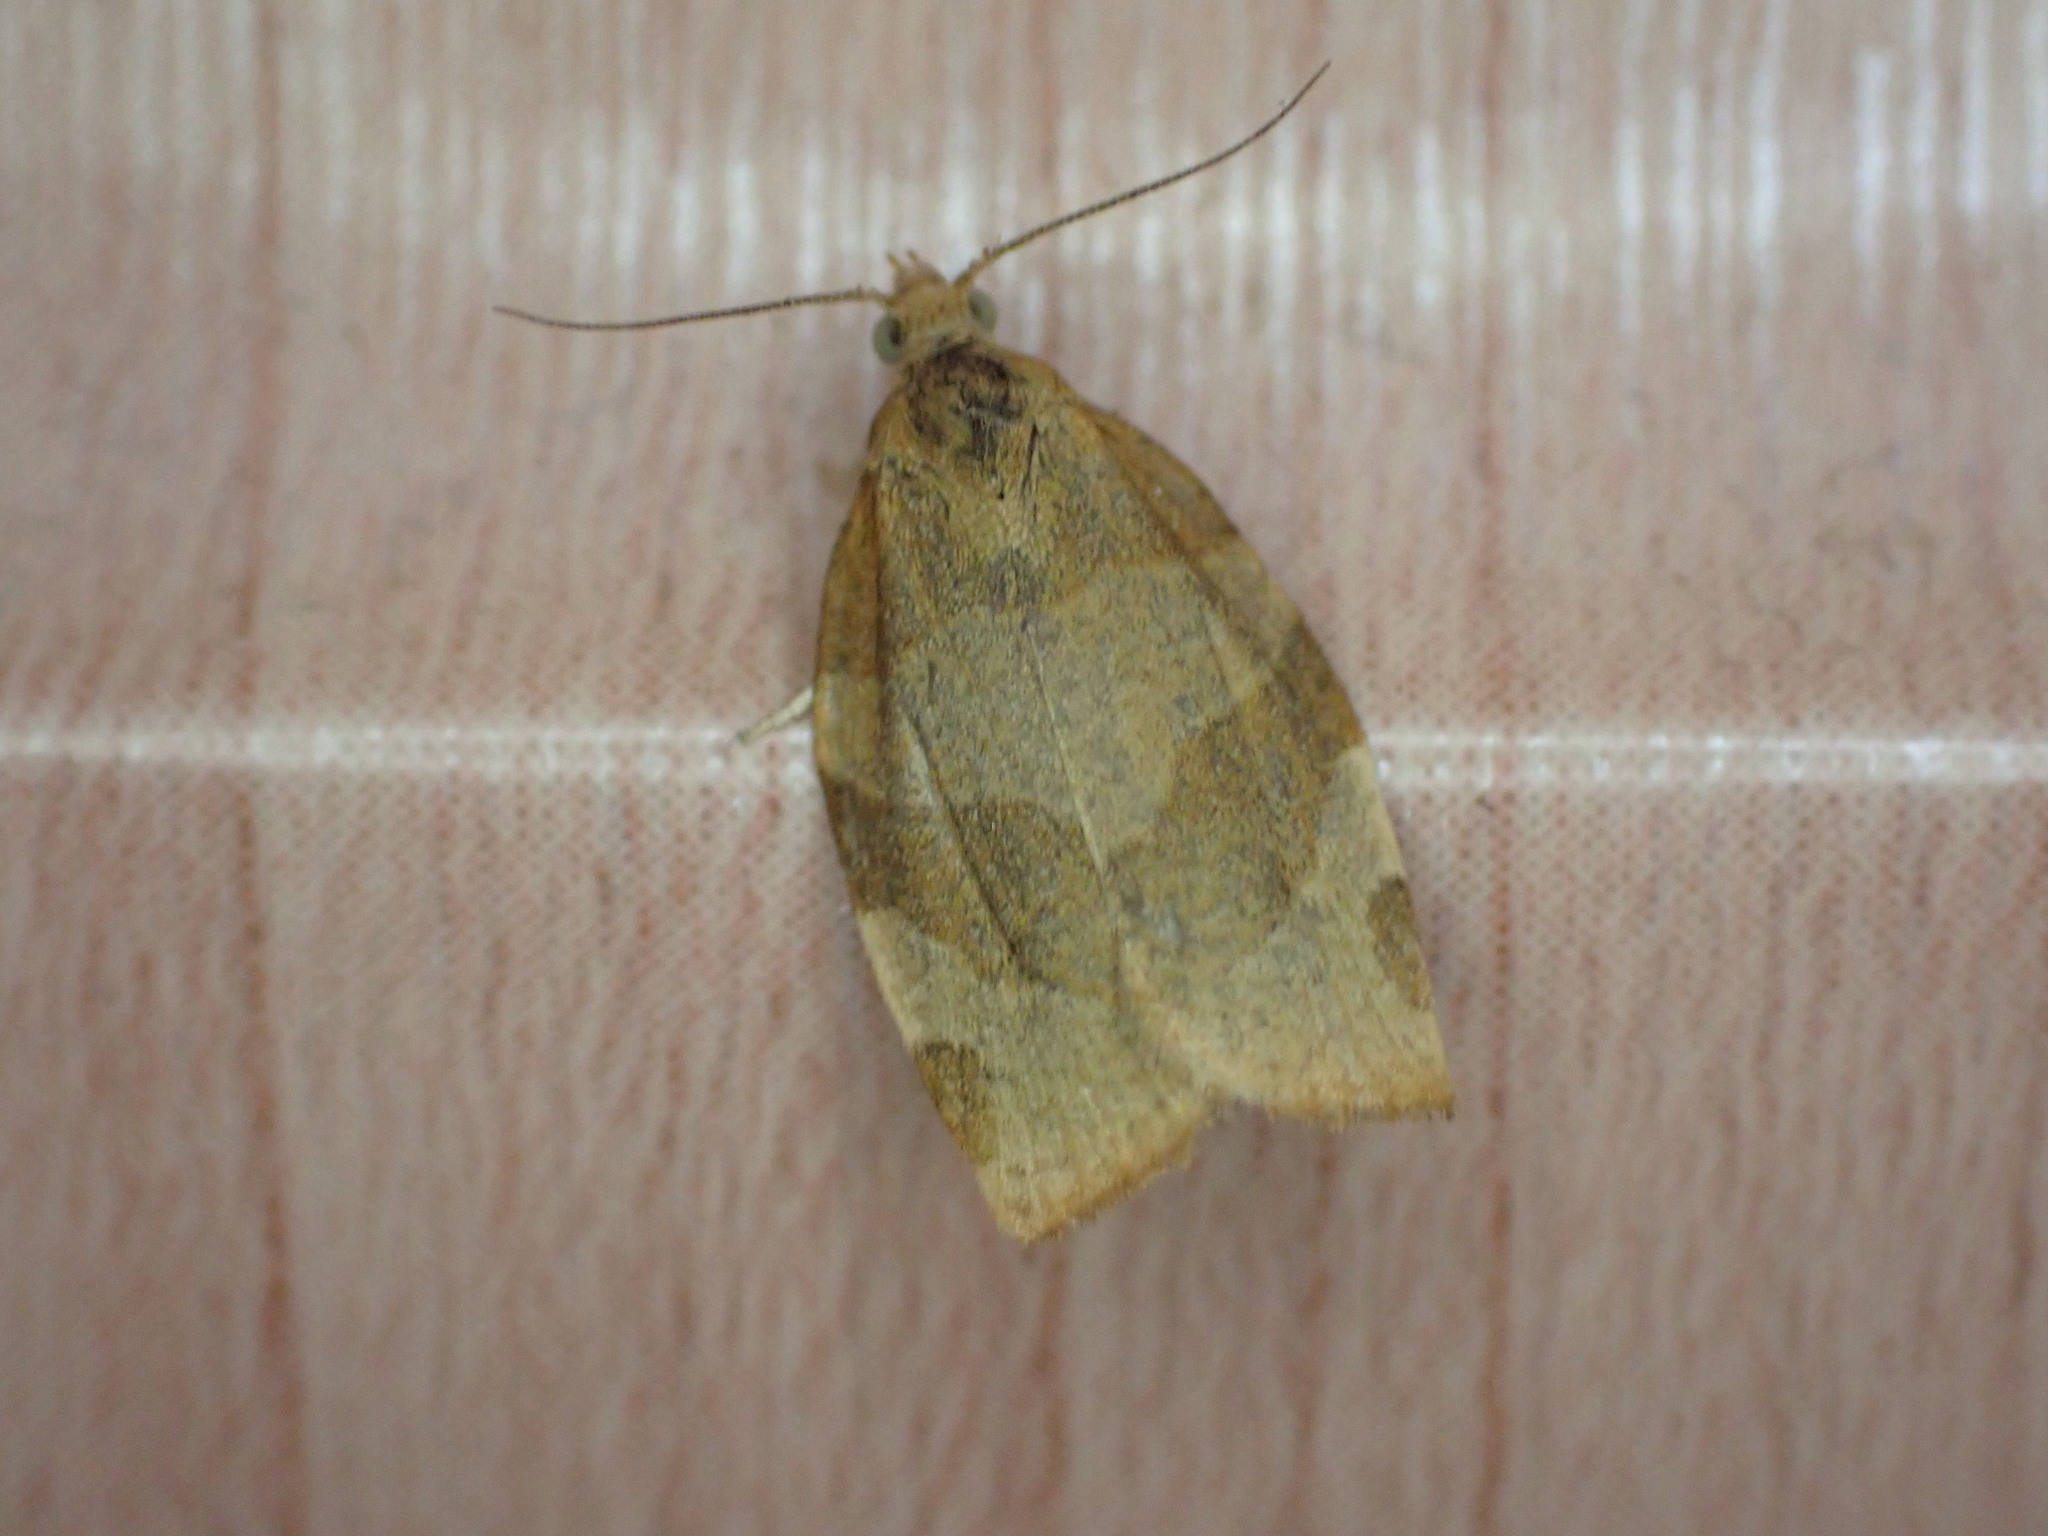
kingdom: Animalia
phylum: Arthropoda
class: Insecta
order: Lepidoptera
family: Tortricidae
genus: Pandemis
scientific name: Pandemis cerasana
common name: Barred fruit-tree tortrix
